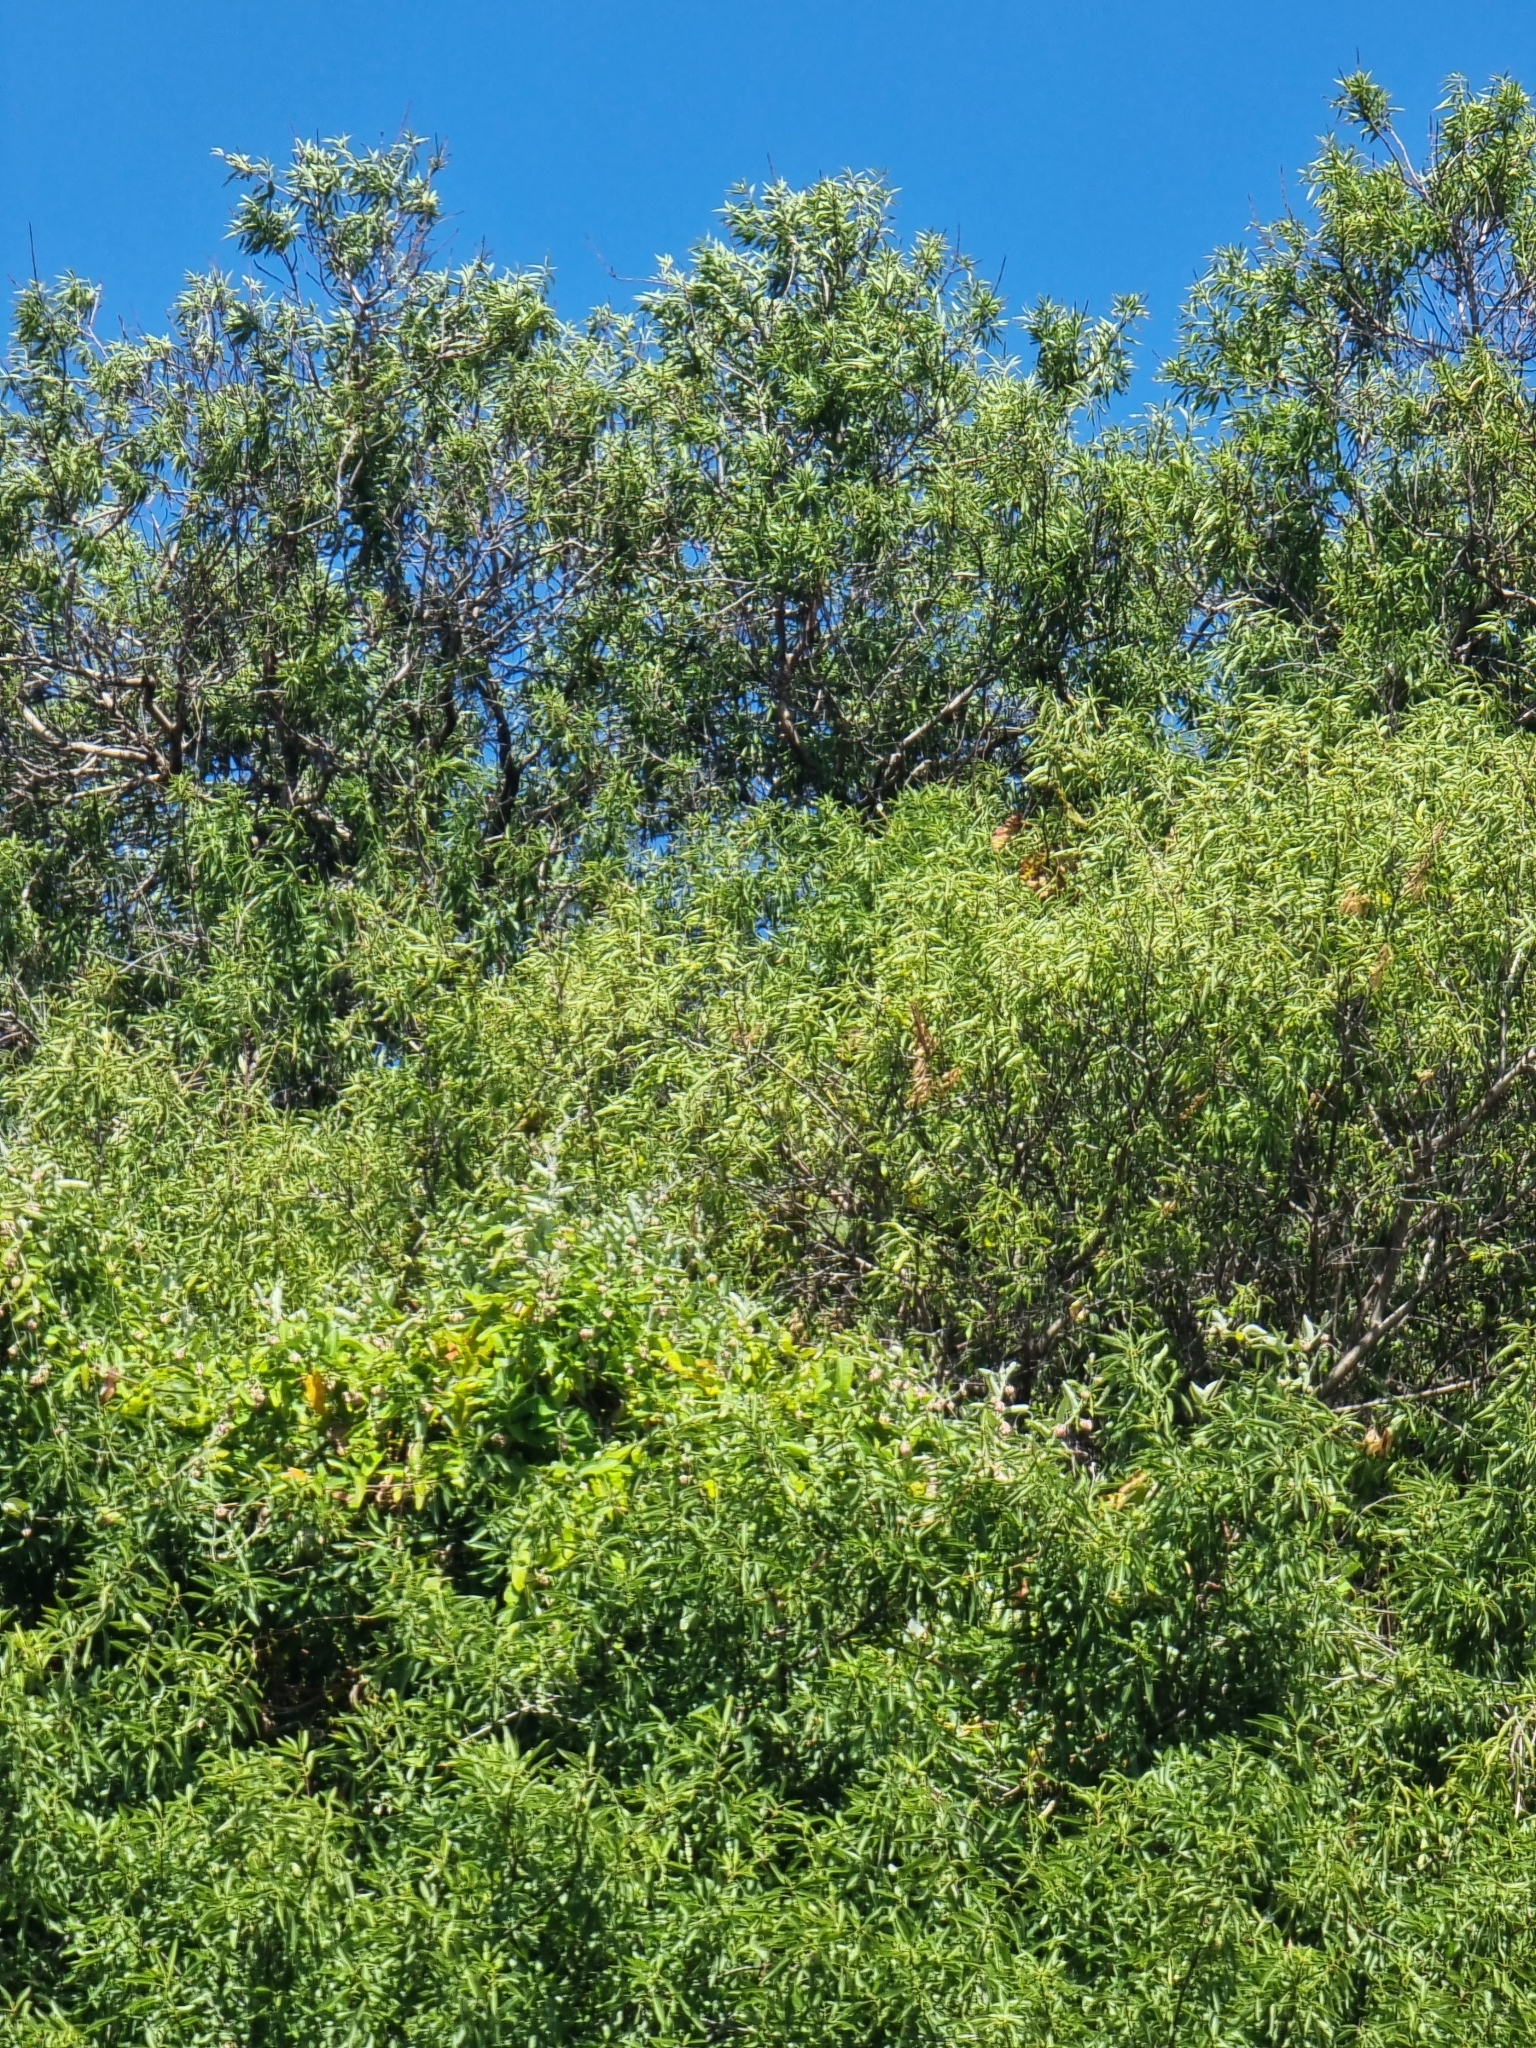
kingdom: Plantae
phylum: Tracheophyta
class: Magnoliopsida
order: Malpighiales
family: Salicaceae
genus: Salix
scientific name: Salix canariensis
